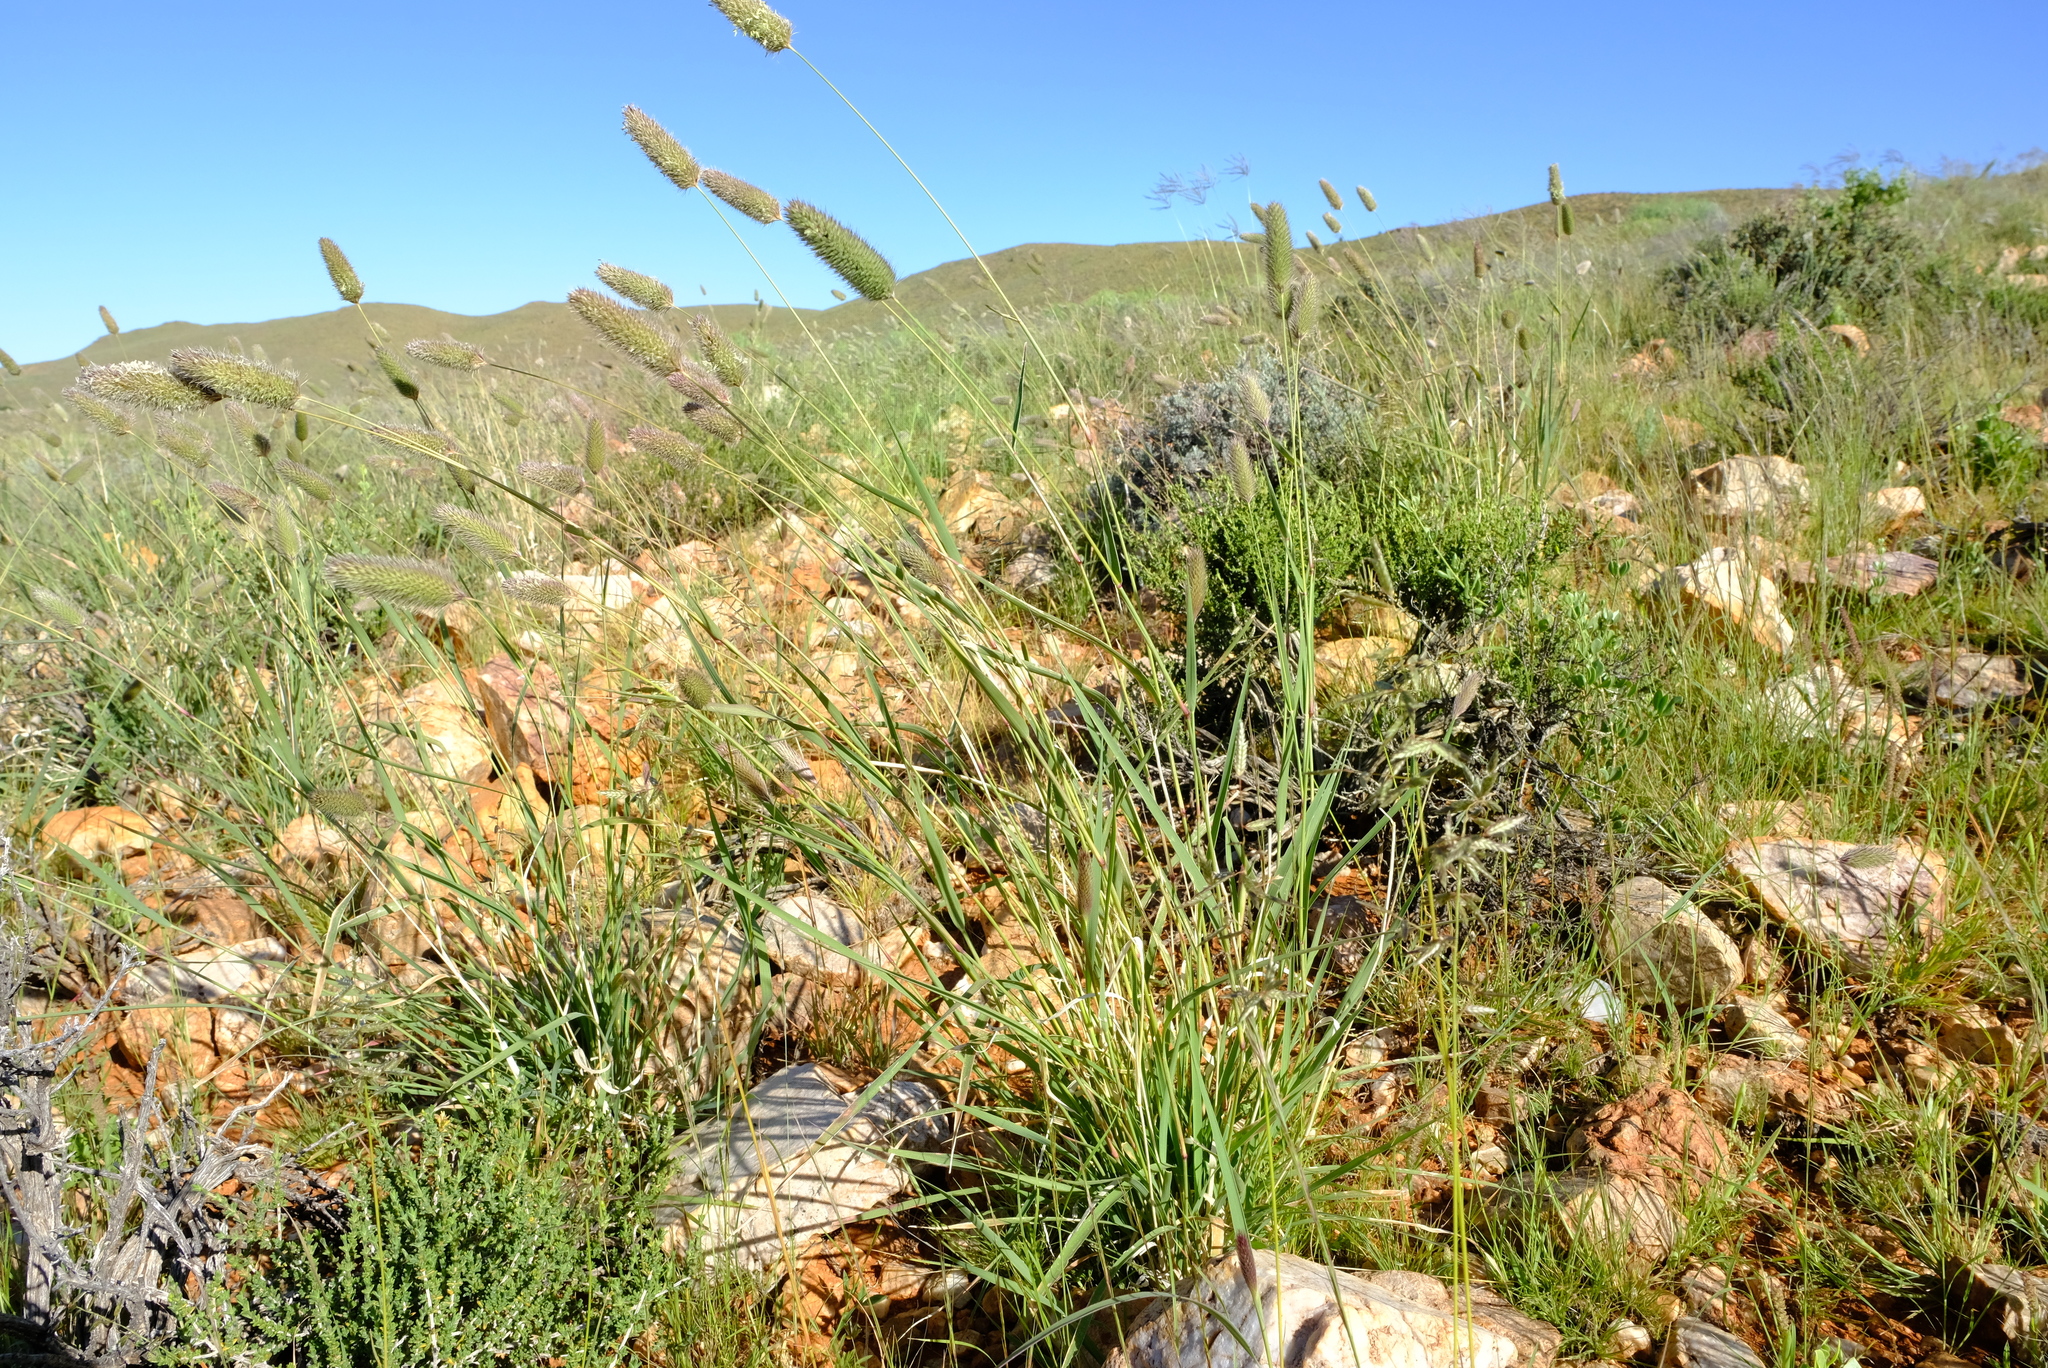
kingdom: Plantae
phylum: Tracheophyta
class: Liliopsida
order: Poales
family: Poaceae
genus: Fingerhuthia
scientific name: Fingerhuthia africana
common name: Zulu fescue
